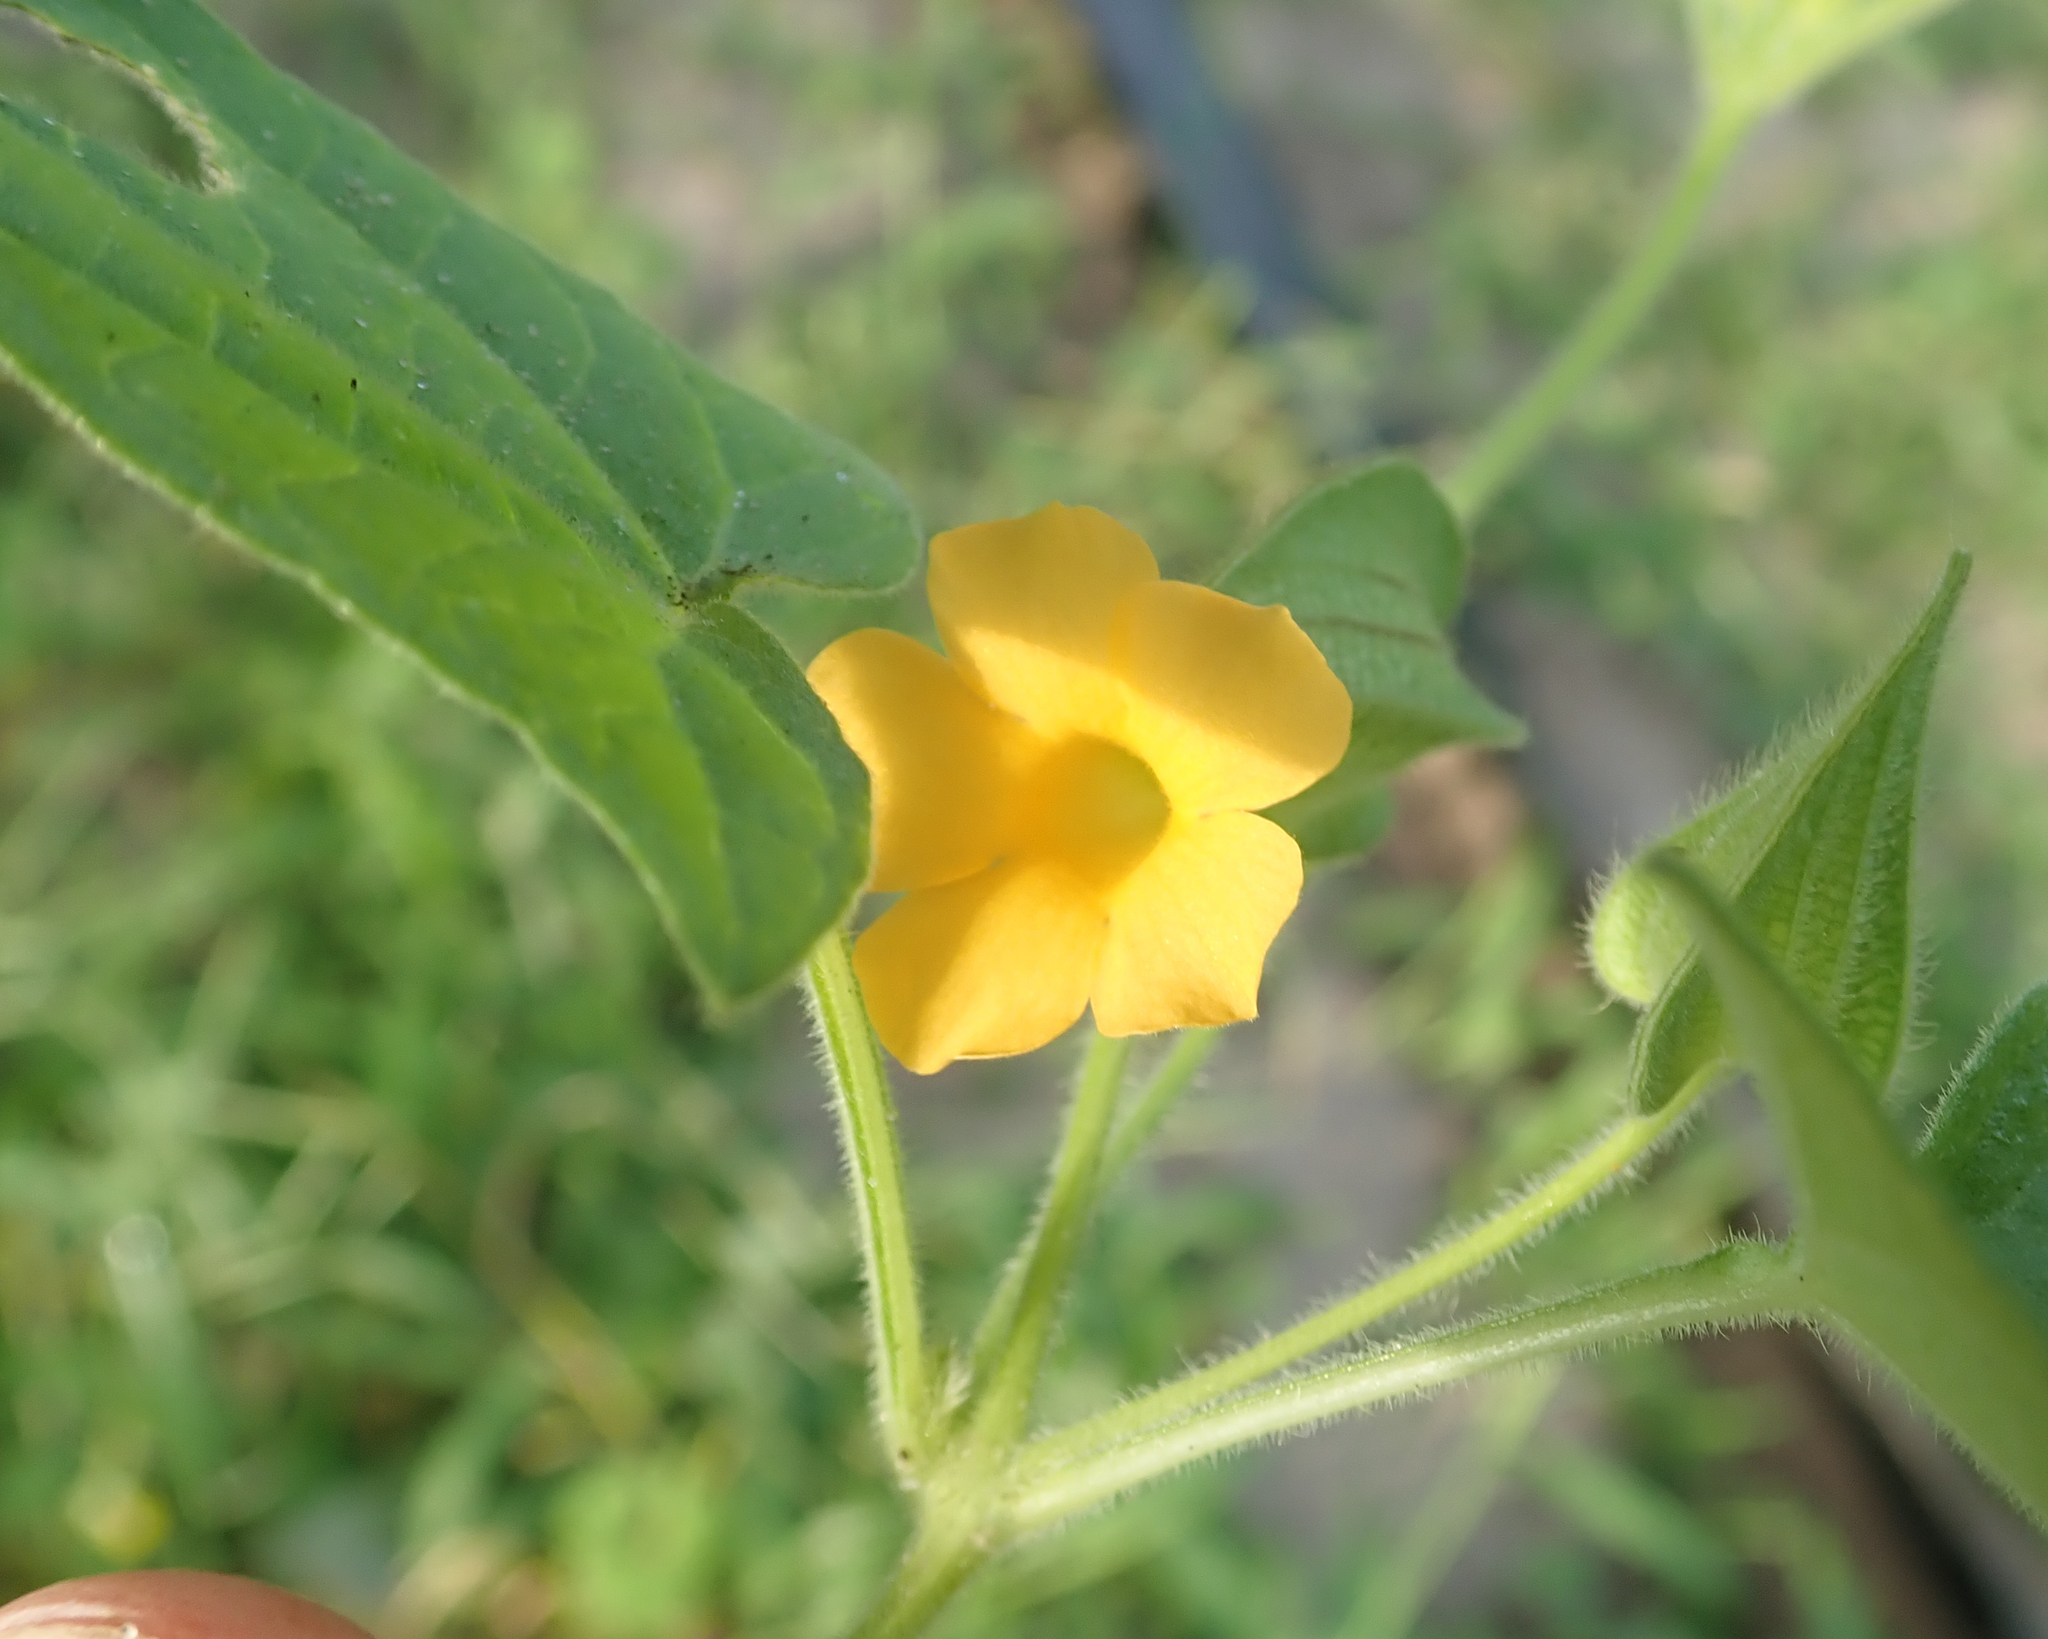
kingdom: Plantae
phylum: Tracheophyta
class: Magnoliopsida
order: Lamiales
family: Acanthaceae
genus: Thunbergia
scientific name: Thunbergia reticulata
